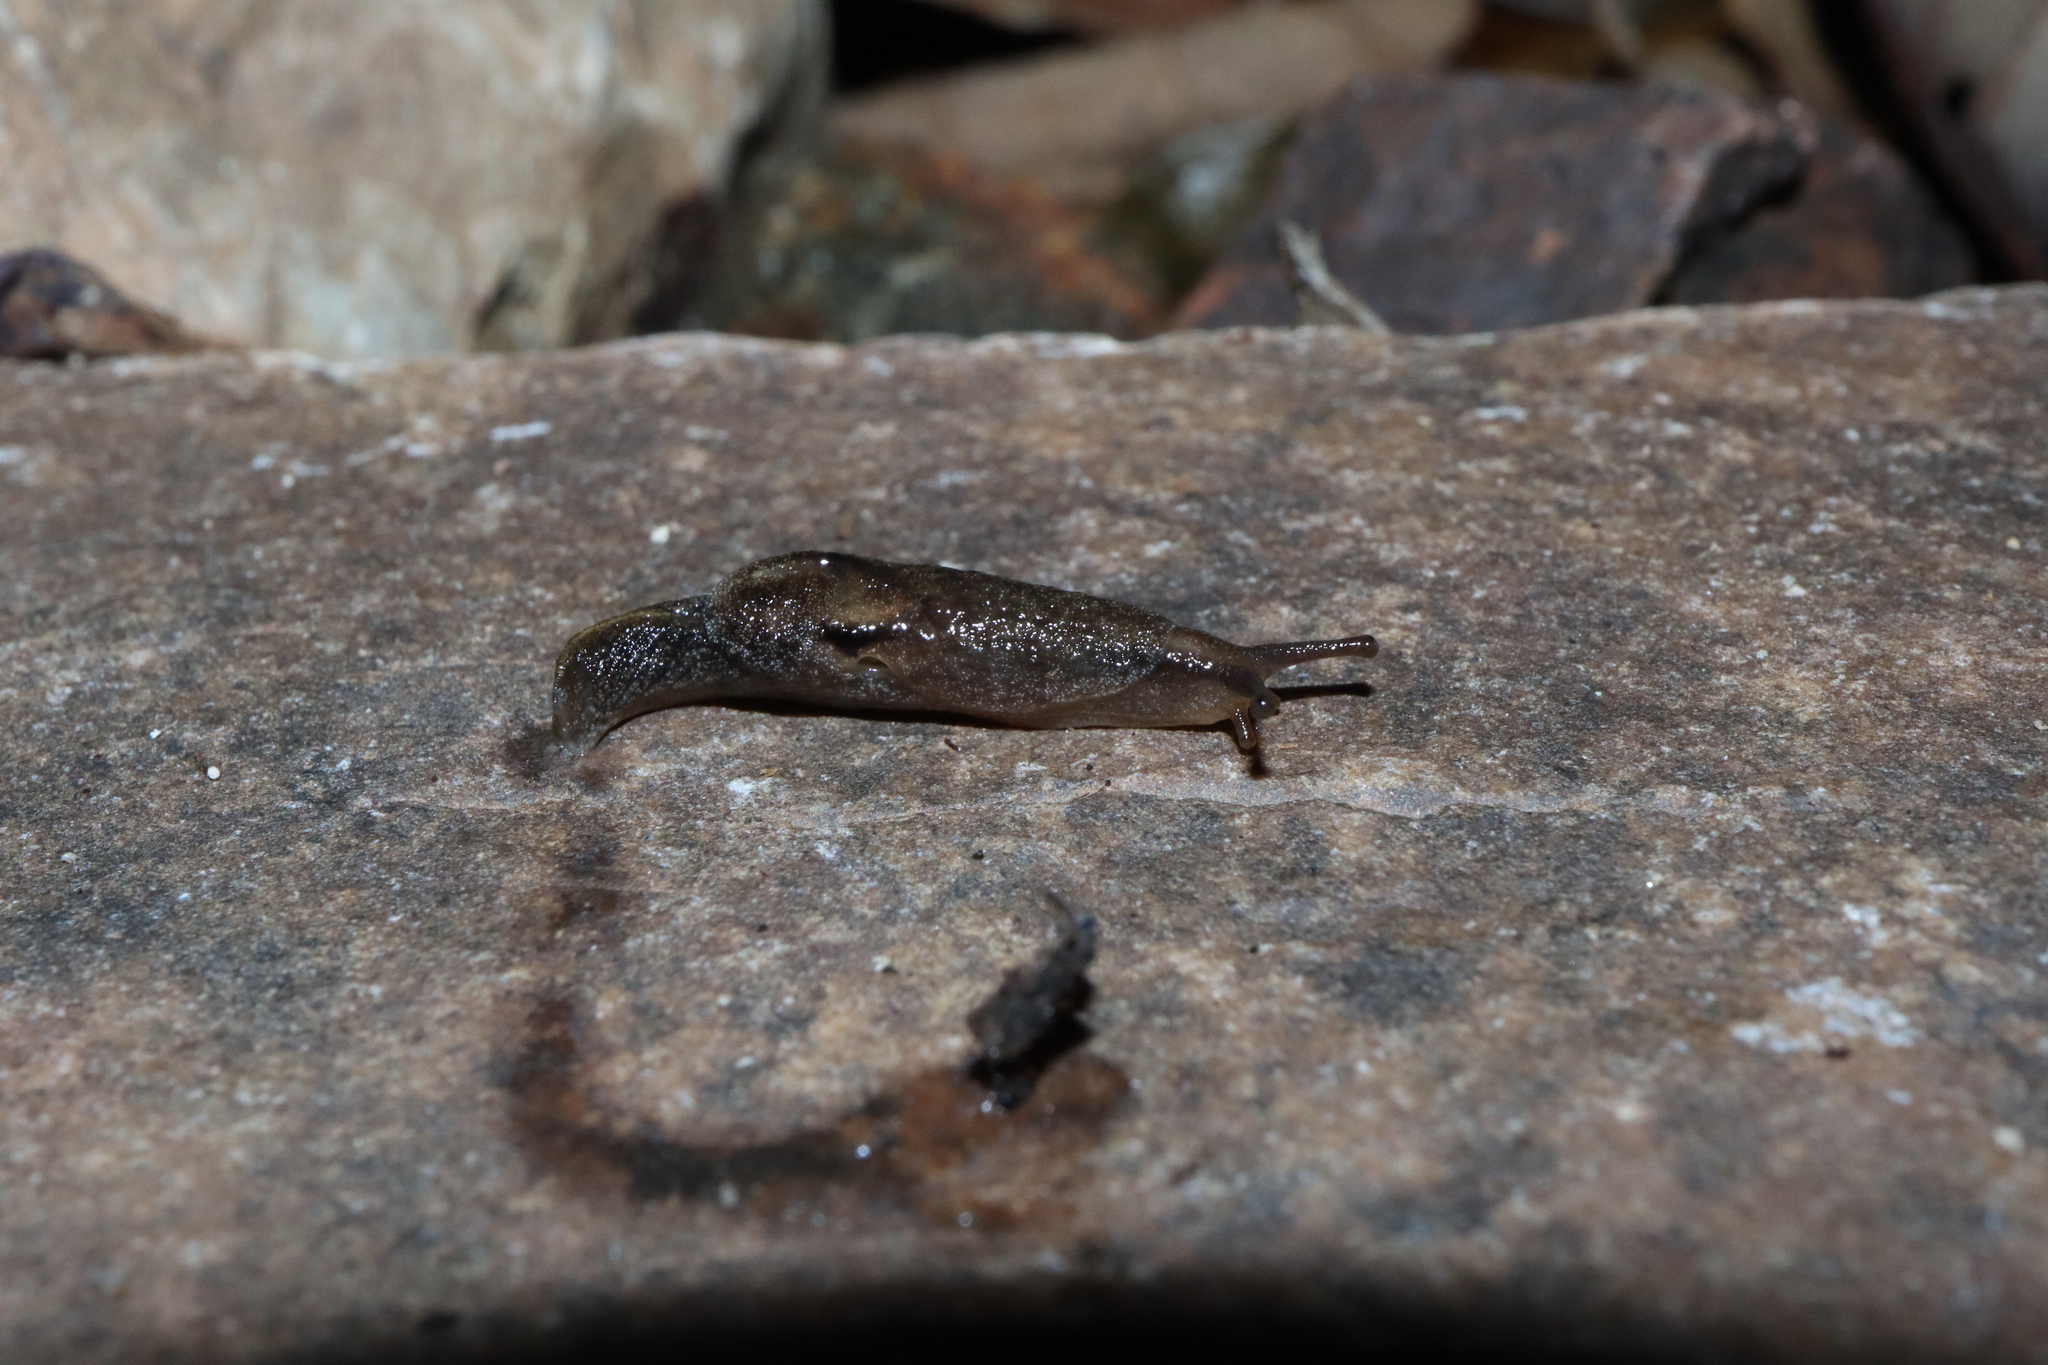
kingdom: Animalia
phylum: Mollusca
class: Gastropoda
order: Stylommatophora
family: Helicarionidae
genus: Parmacochlea
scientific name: Parmacochlea balios
